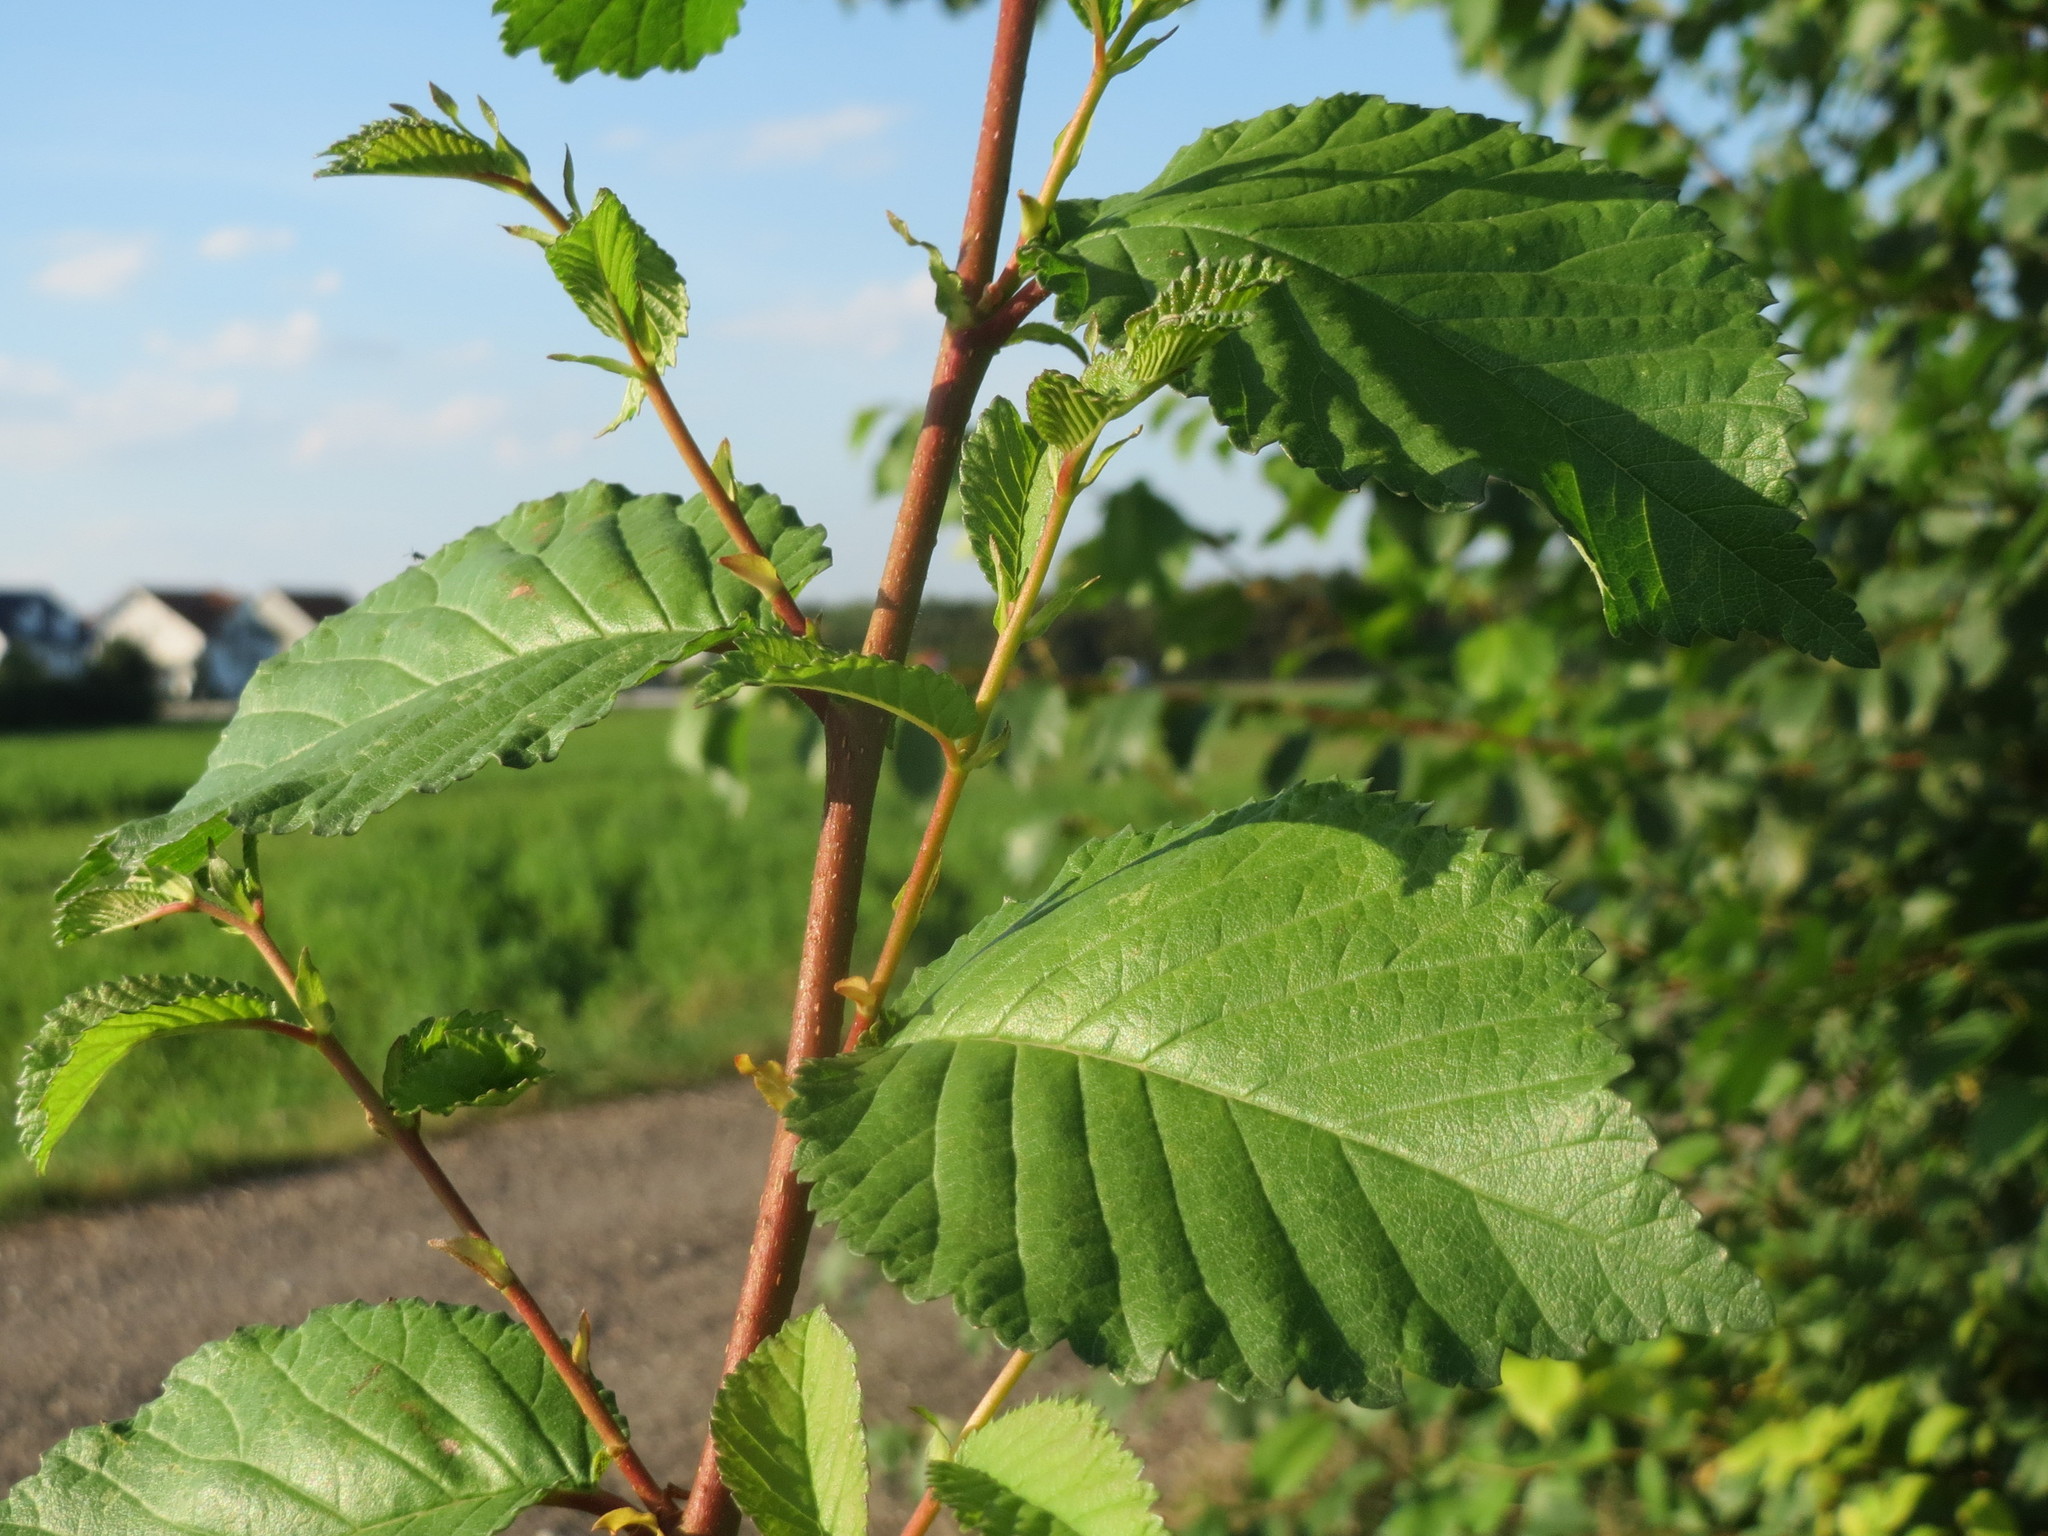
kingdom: Plantae
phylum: Tracheophyta
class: Magnoliopsida
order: Rosales
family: Ulmaceae
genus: Ulmus
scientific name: Ulmus minor
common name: Small-leaved elm
